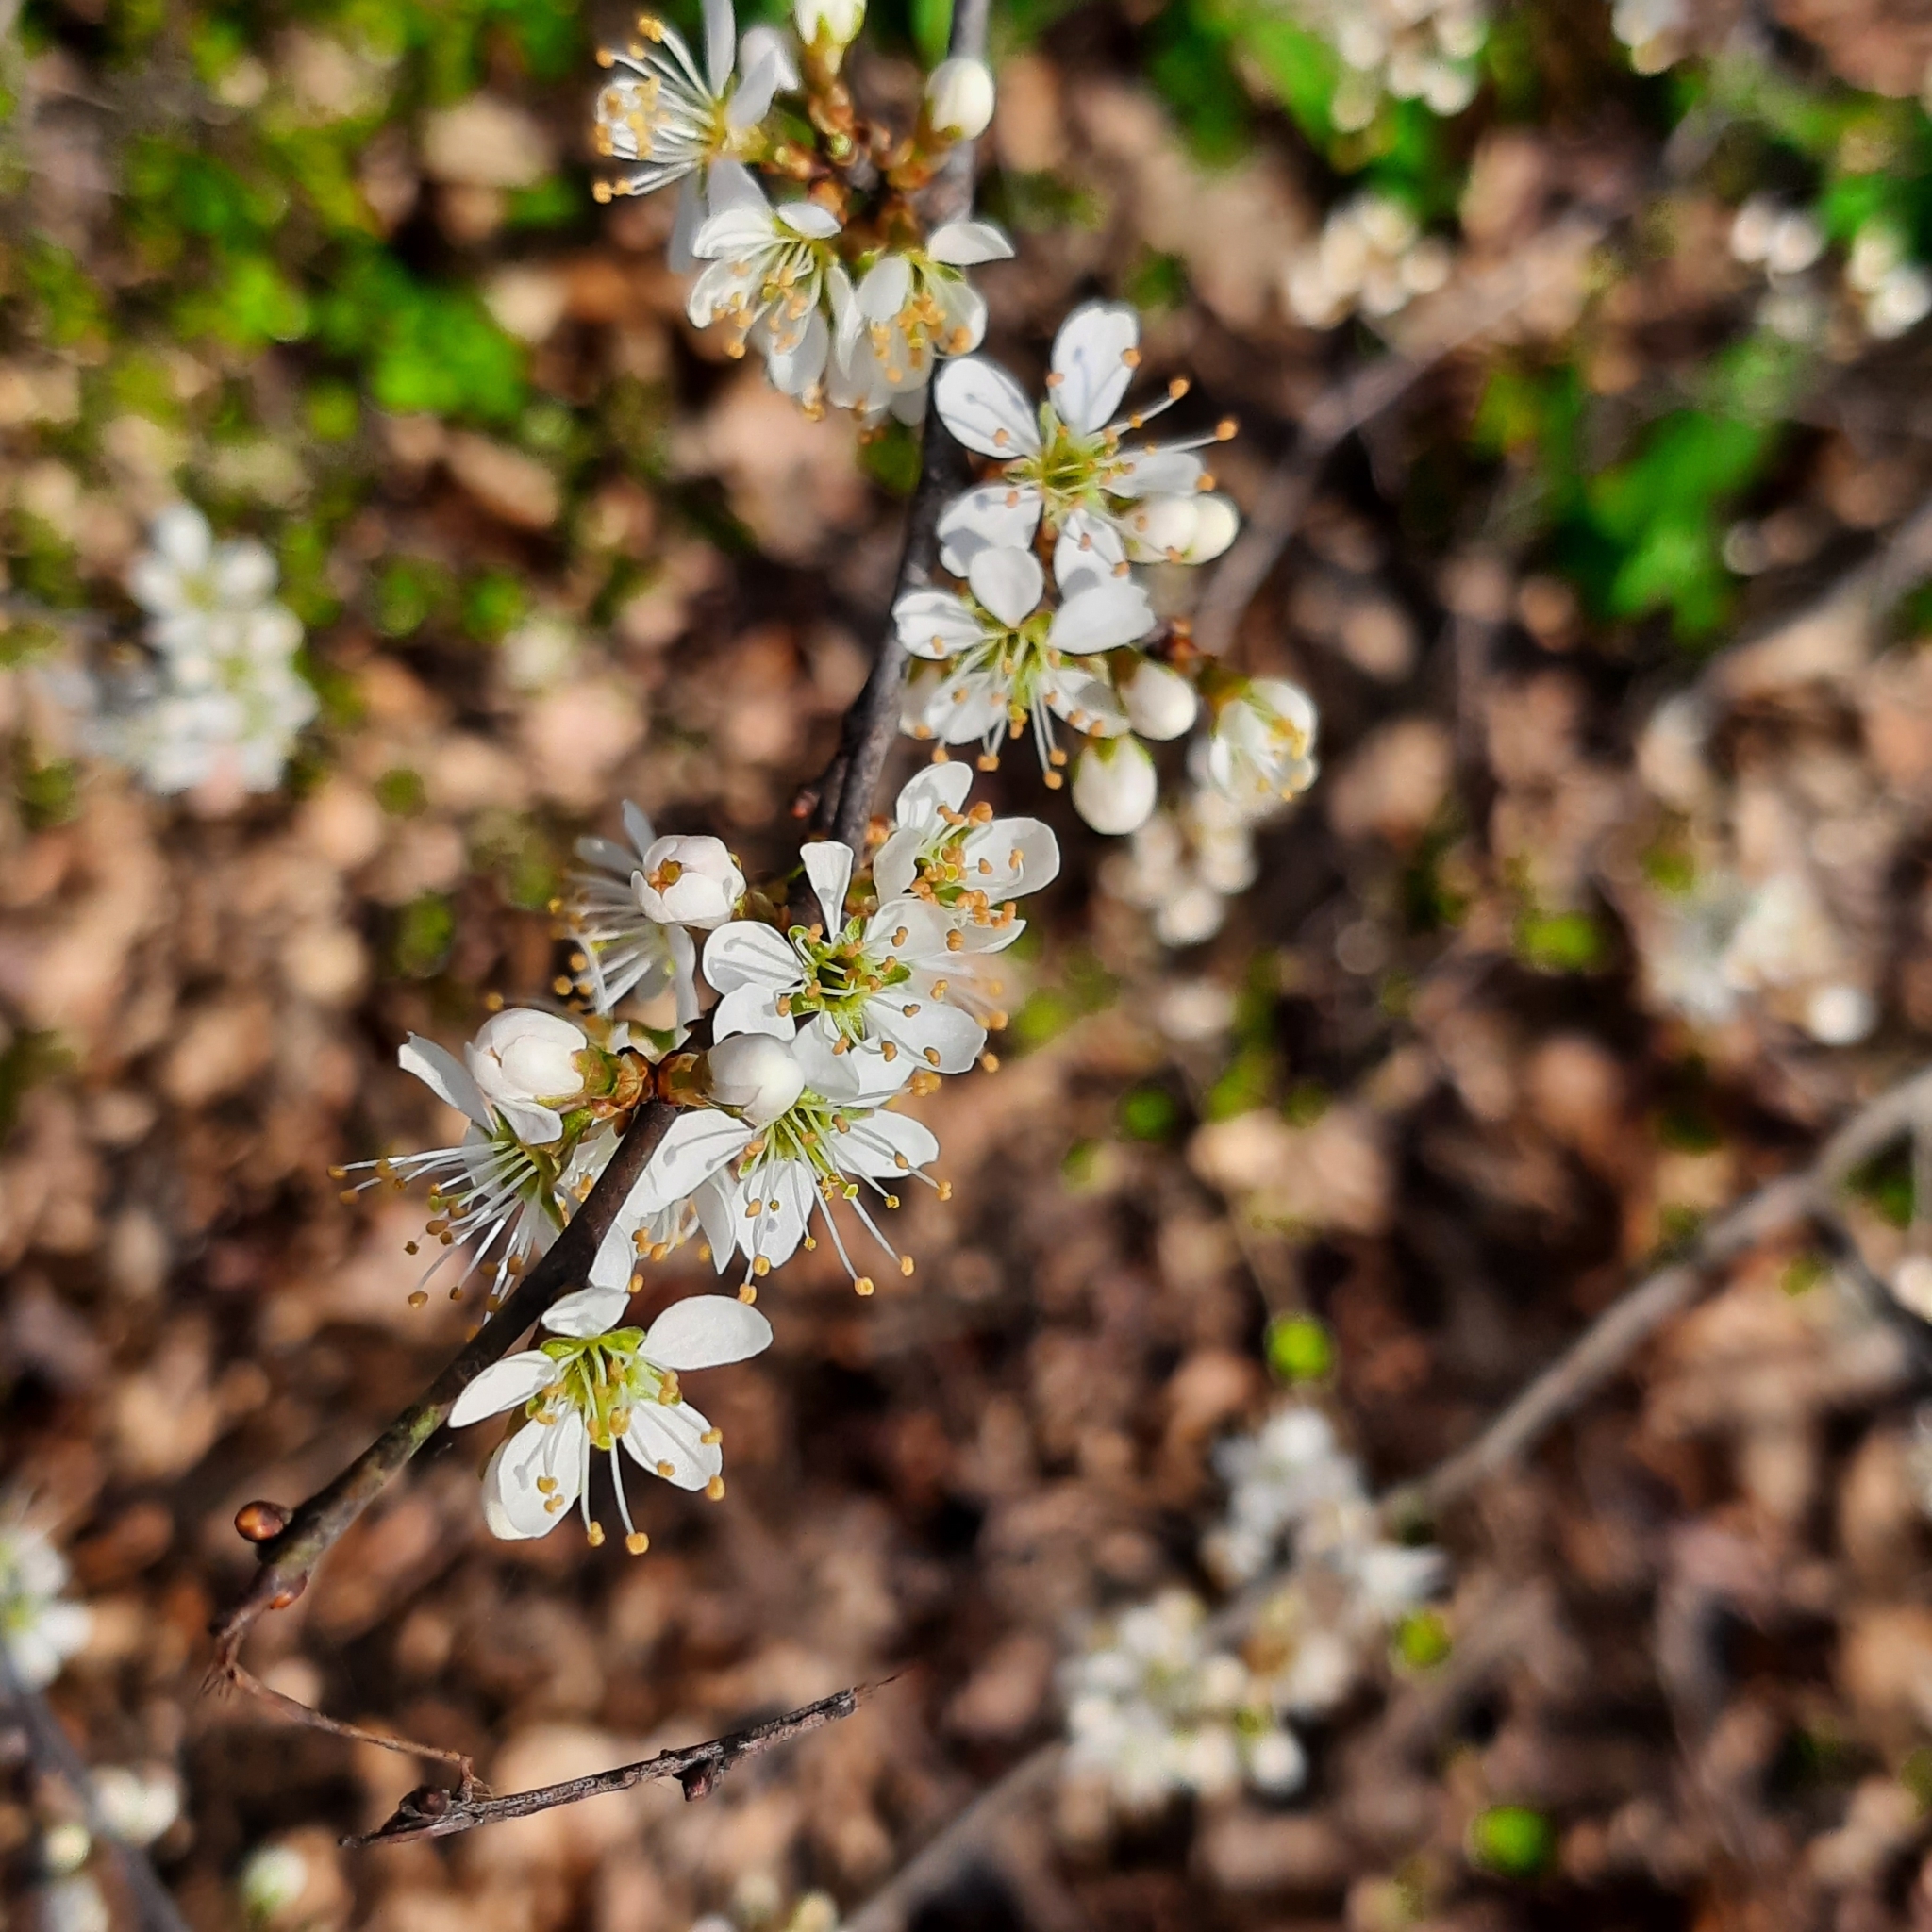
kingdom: Plantae
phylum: Tracheophyta
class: Magnoliopsida
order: Rosales
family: Rosaceae
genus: Prunus
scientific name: Prunus spinosa
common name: Blackthorn
